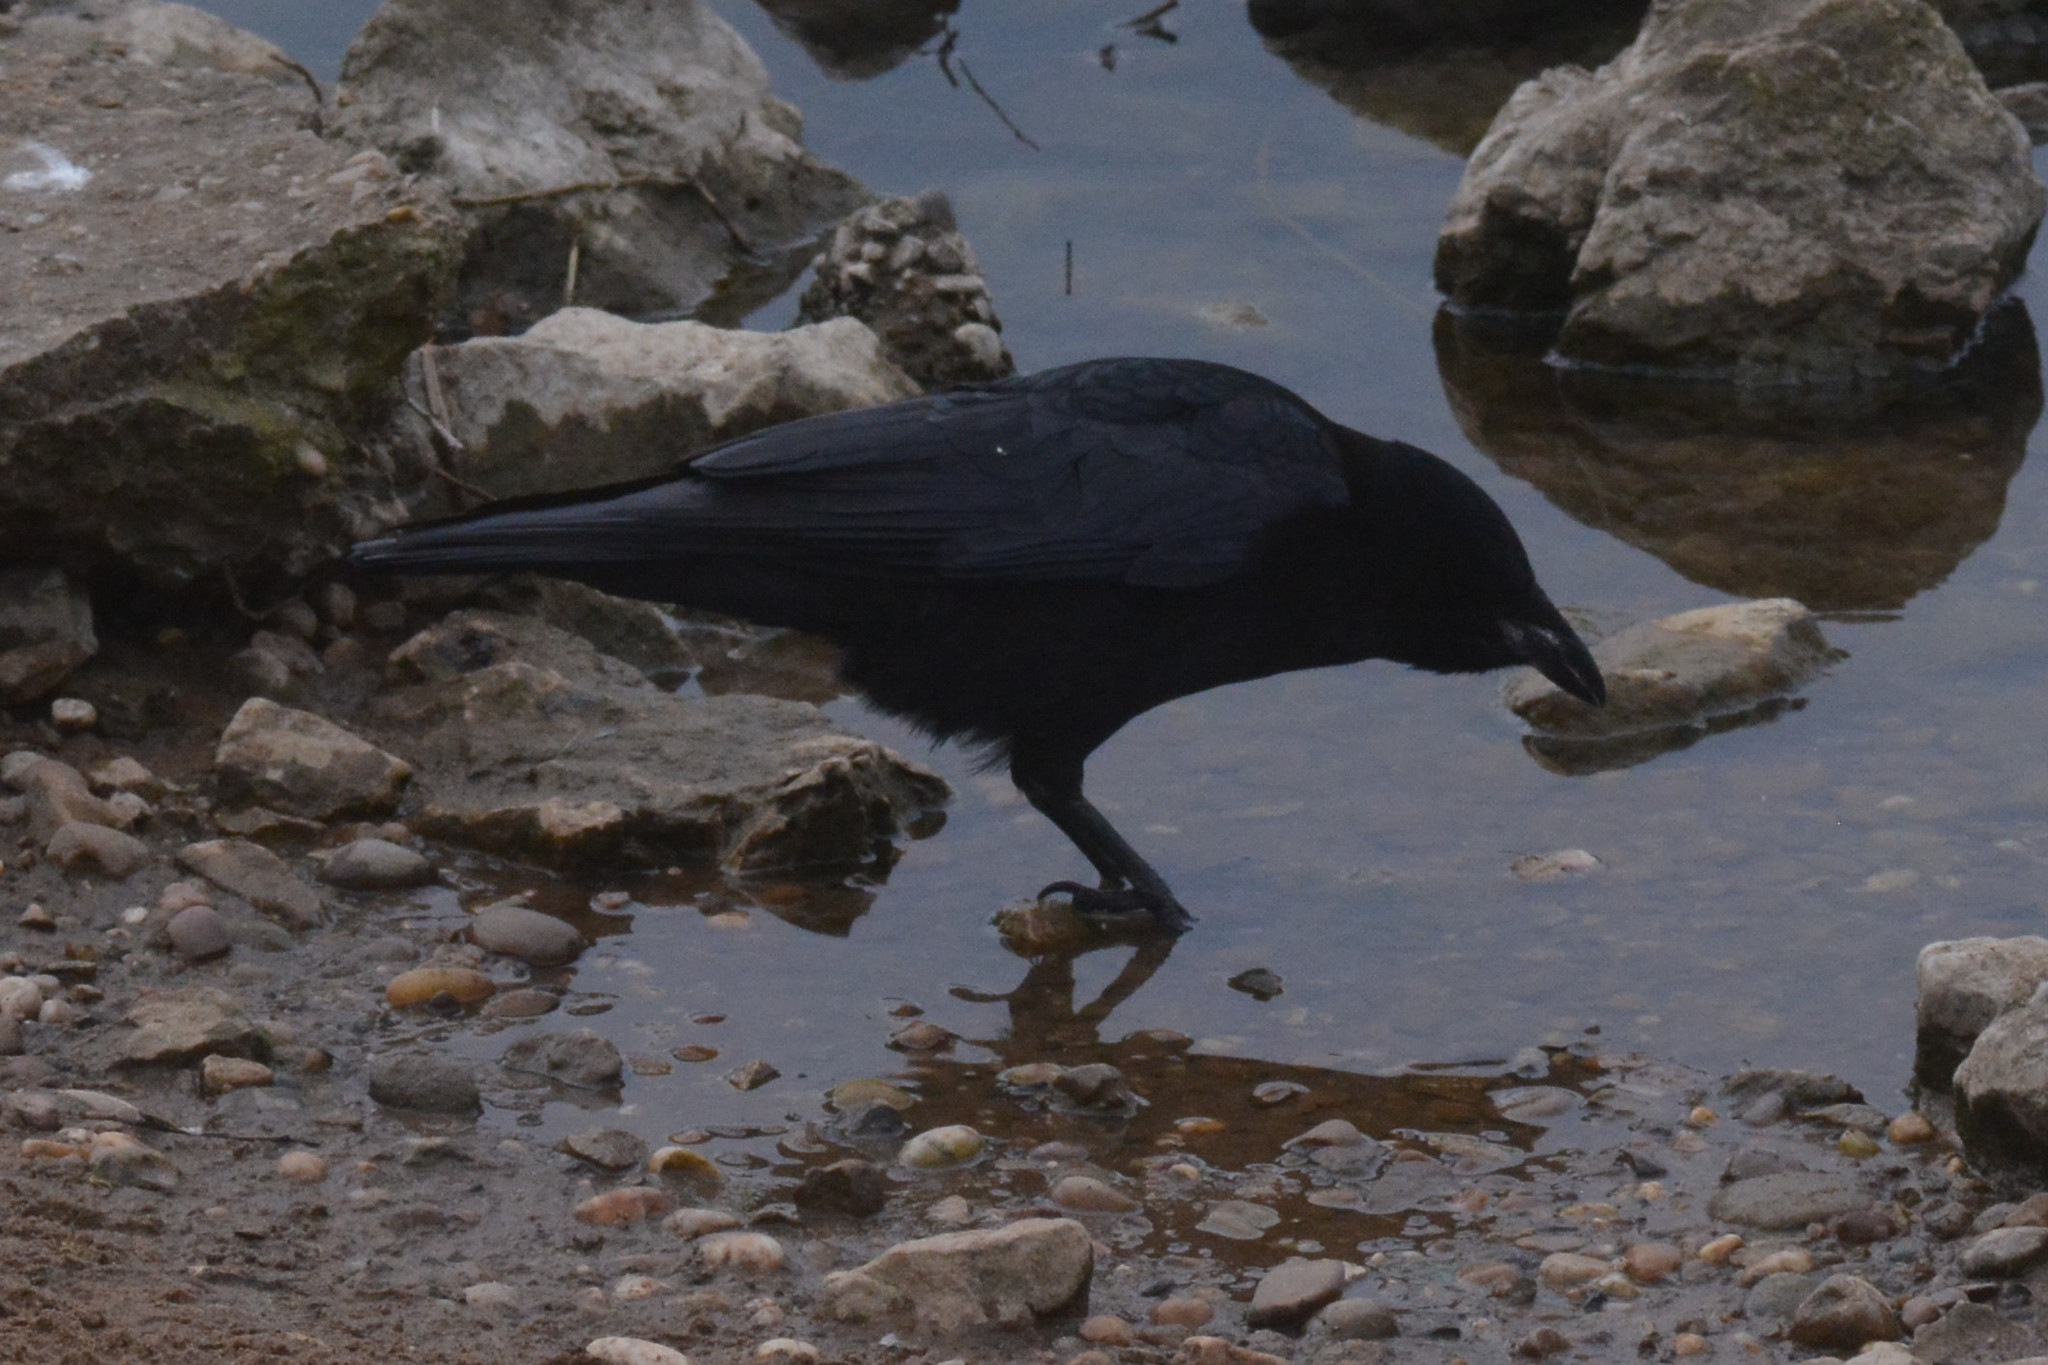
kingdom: Animalia
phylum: Chordata
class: Aves
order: Passeriformes
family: Corvidae
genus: Corvus
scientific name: Corvus corone
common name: Carrion crow
